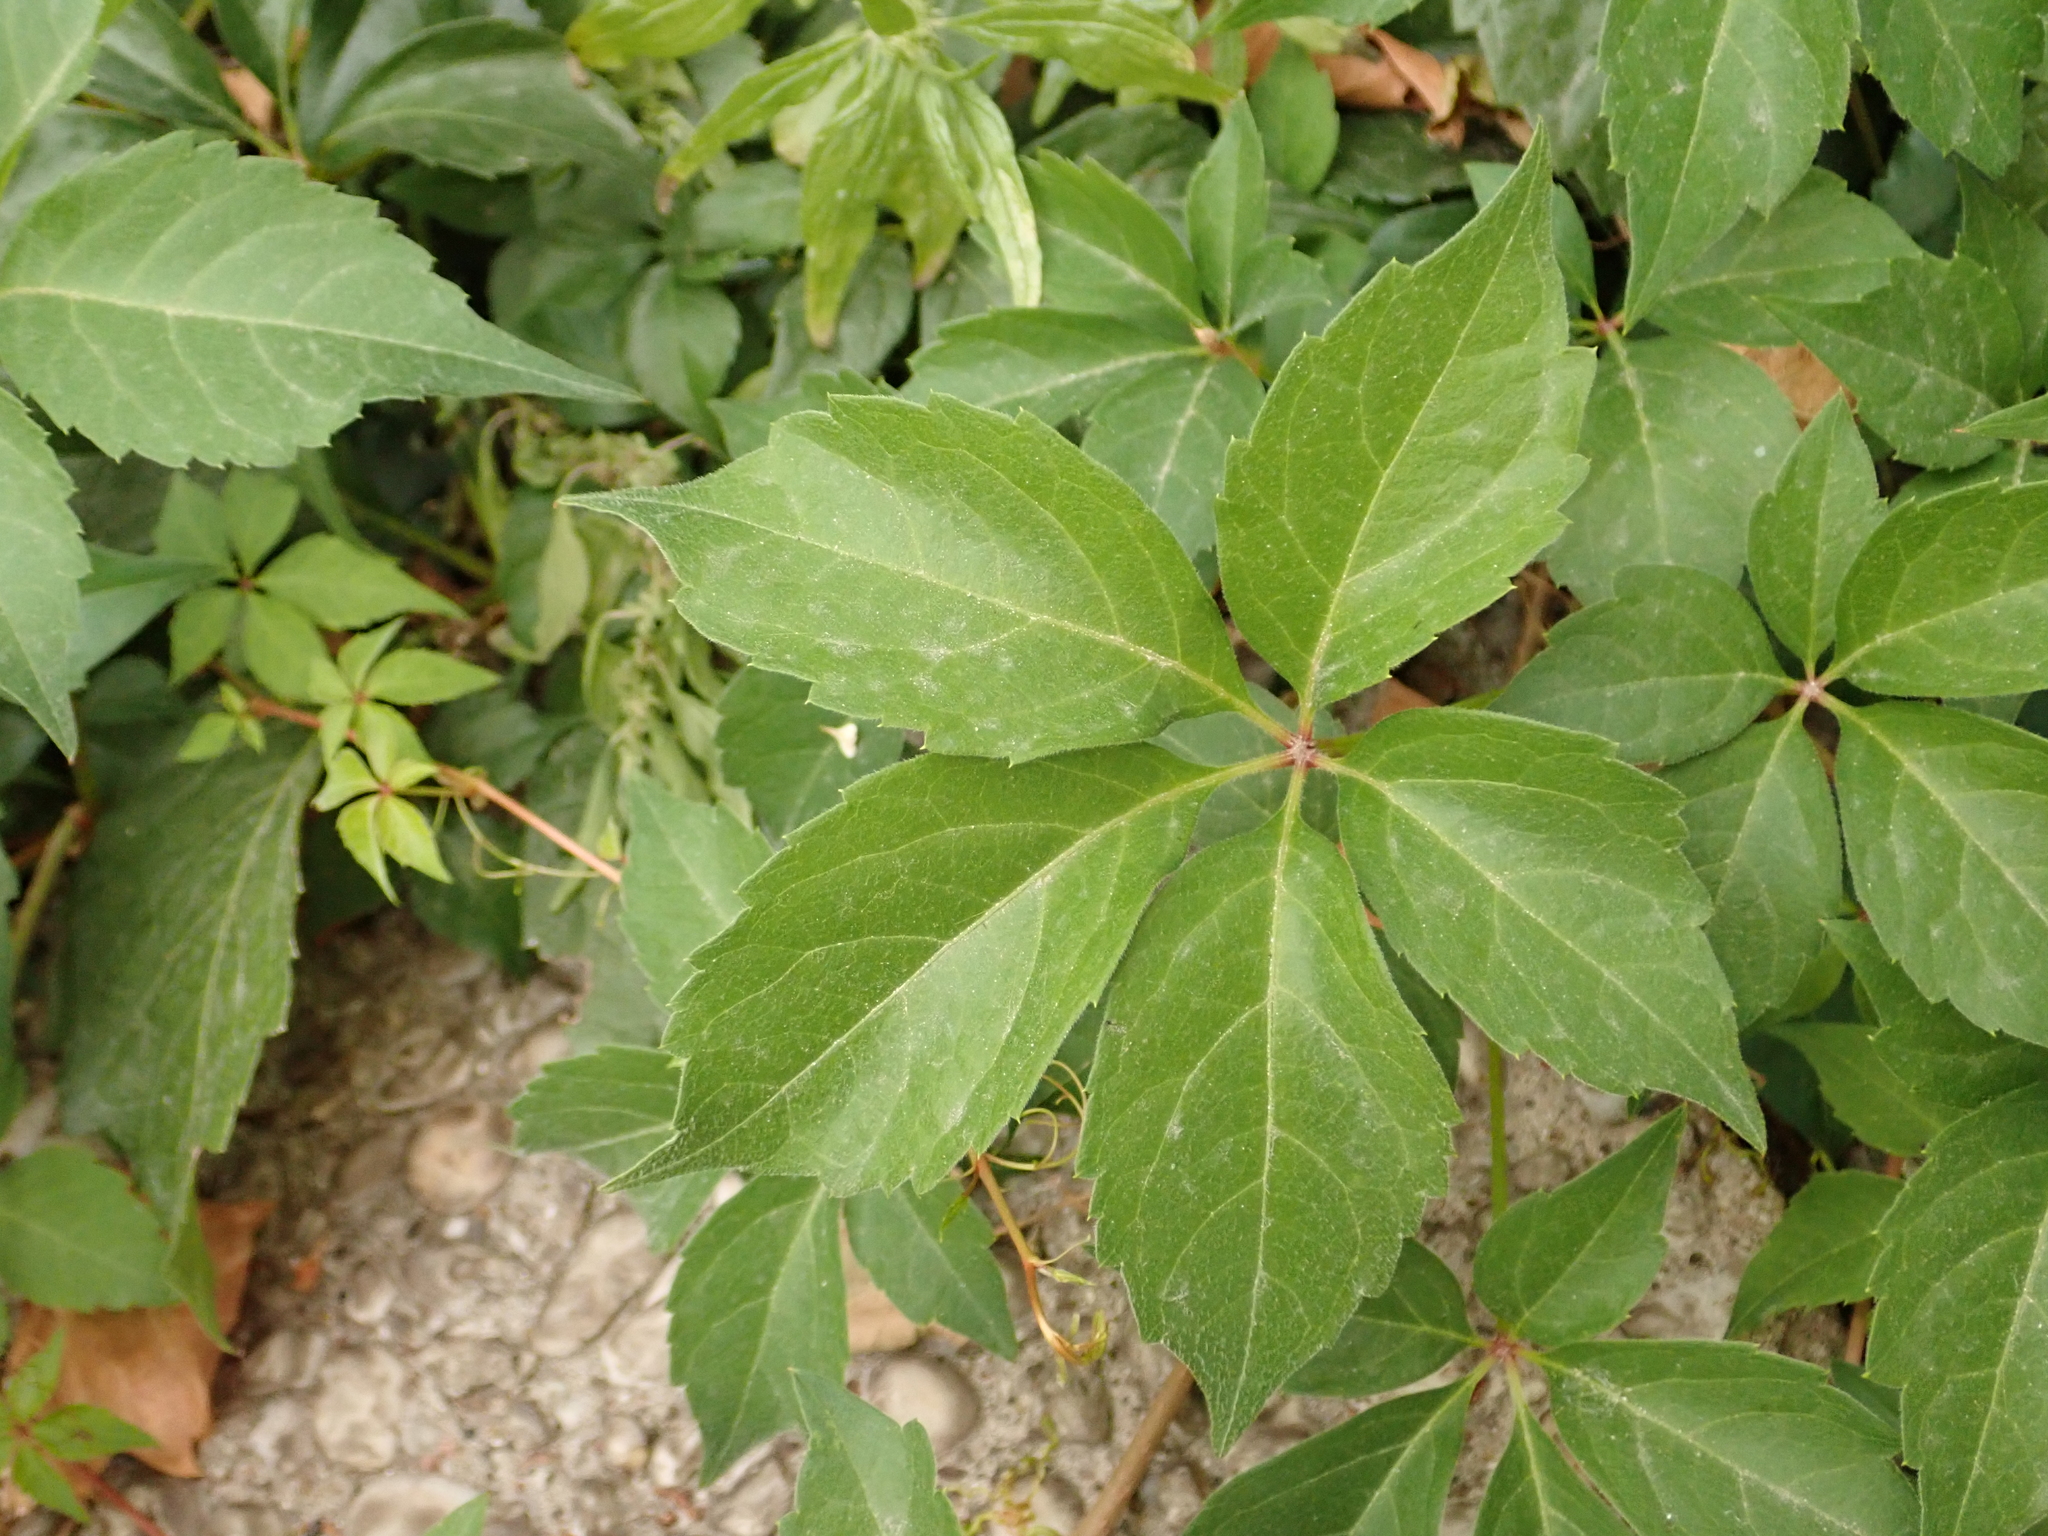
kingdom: Plantae
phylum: Tracheophyta
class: Magnoliopsida
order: Vitales
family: Vitaceae
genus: Parthenocissus
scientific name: Parthenocissus quinquefolia
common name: Virginia-creeper
